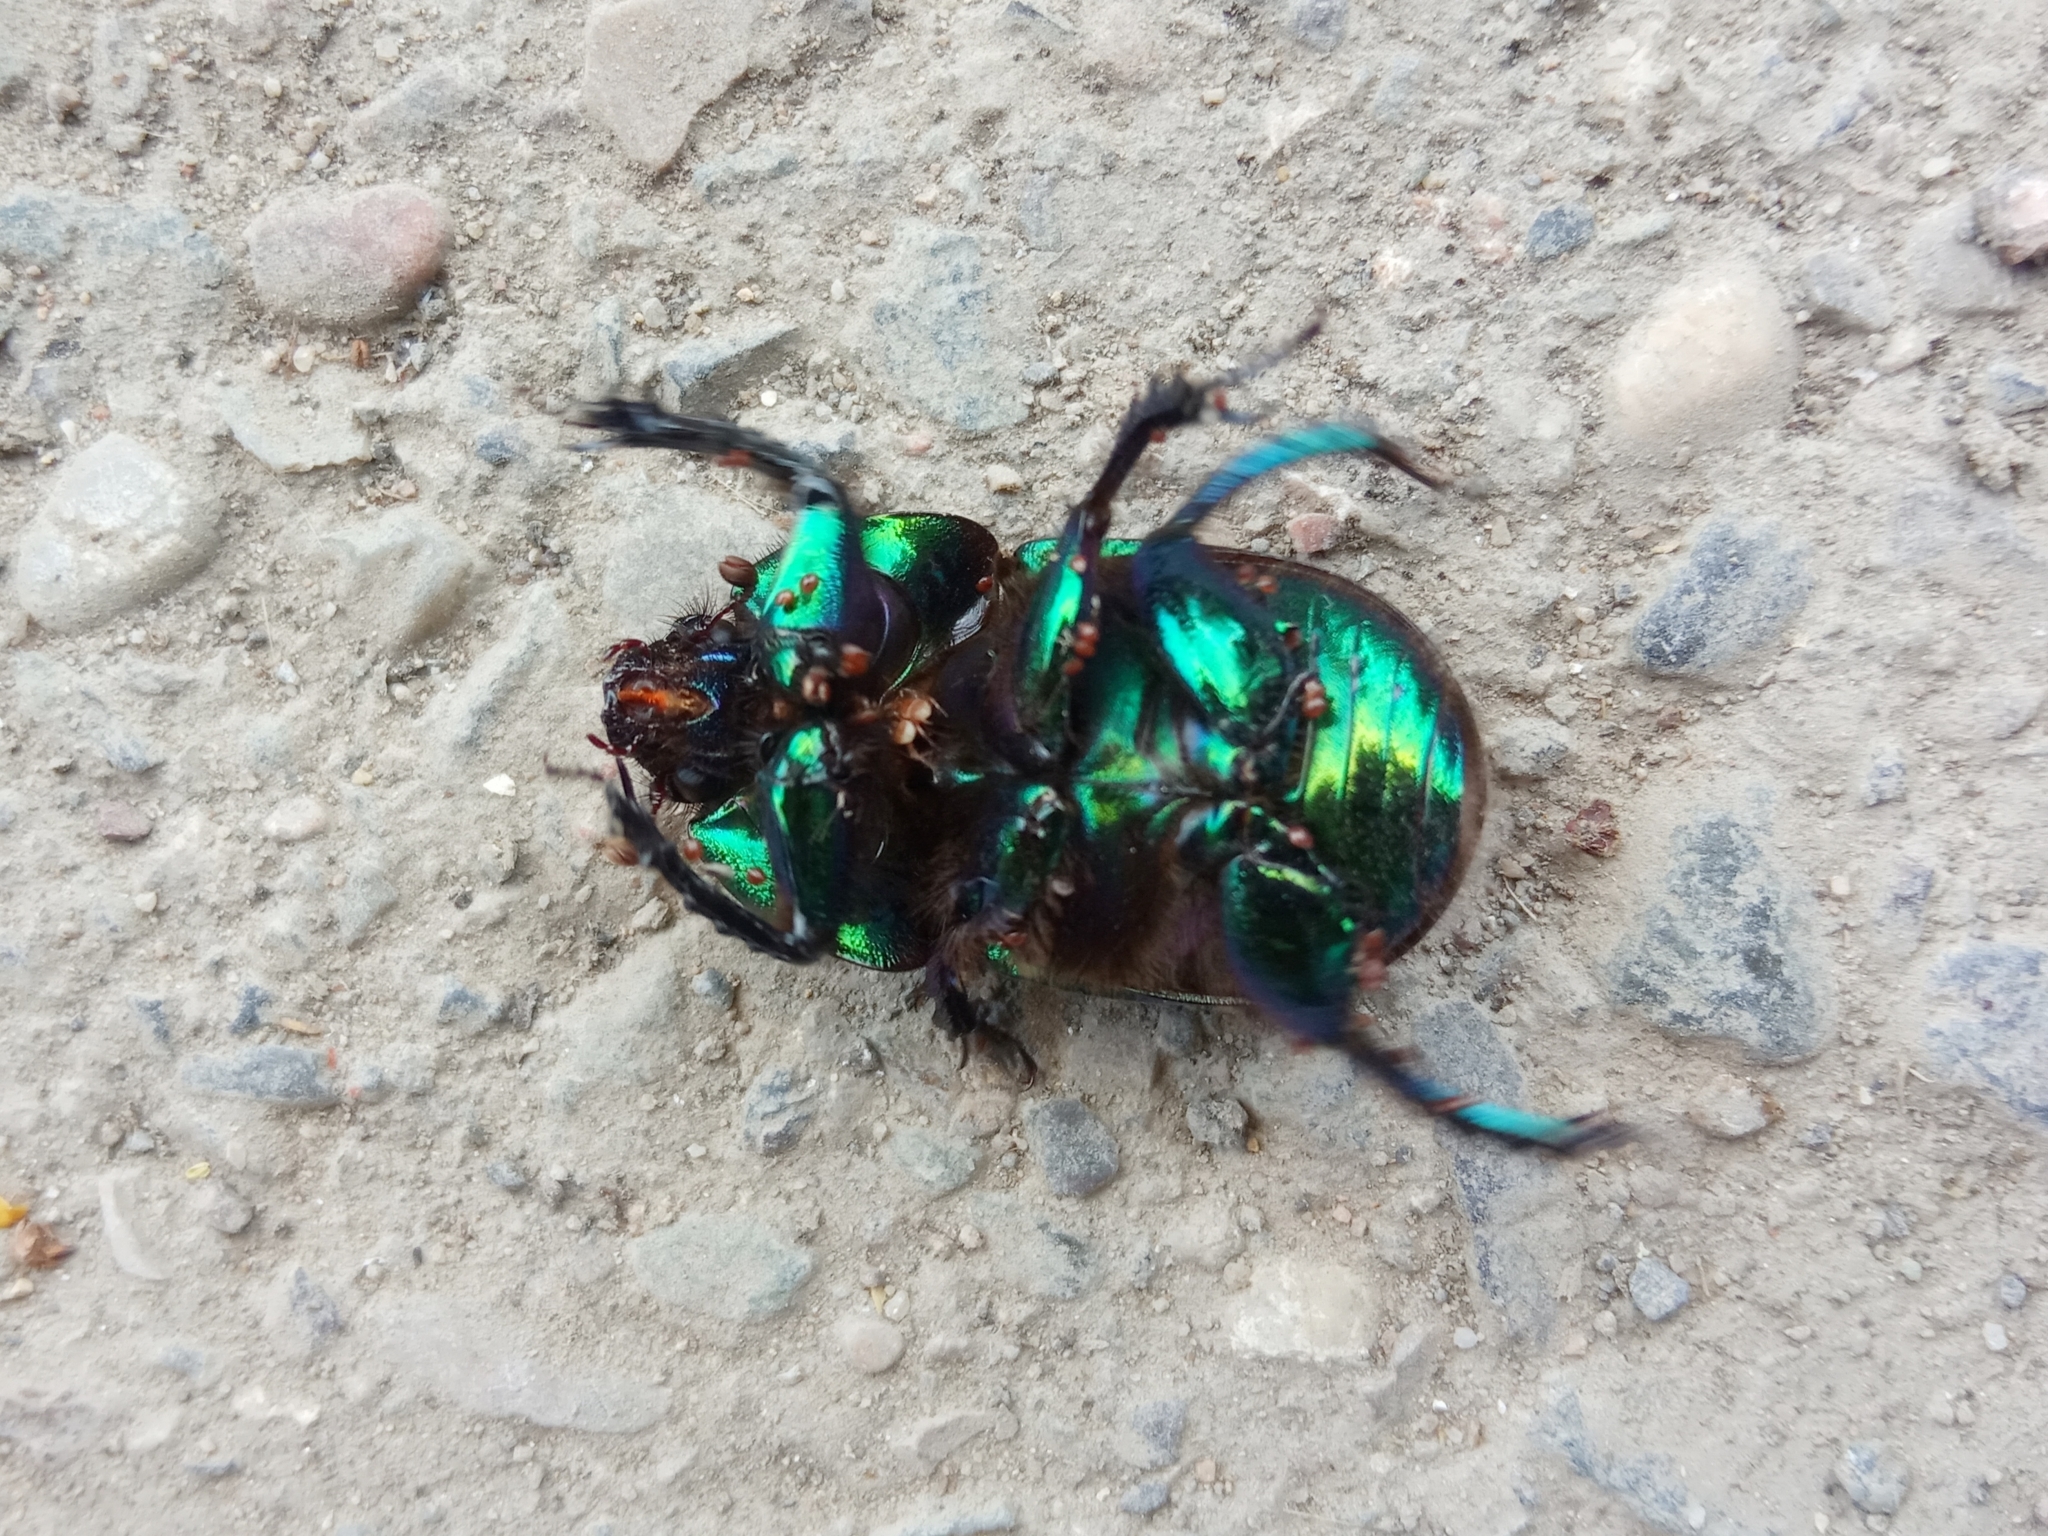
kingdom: Animalia
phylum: Arthropoda
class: Insecta
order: Coleoptera
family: Geotrupidae
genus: Geotrupes
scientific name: Geotrupes mutator
